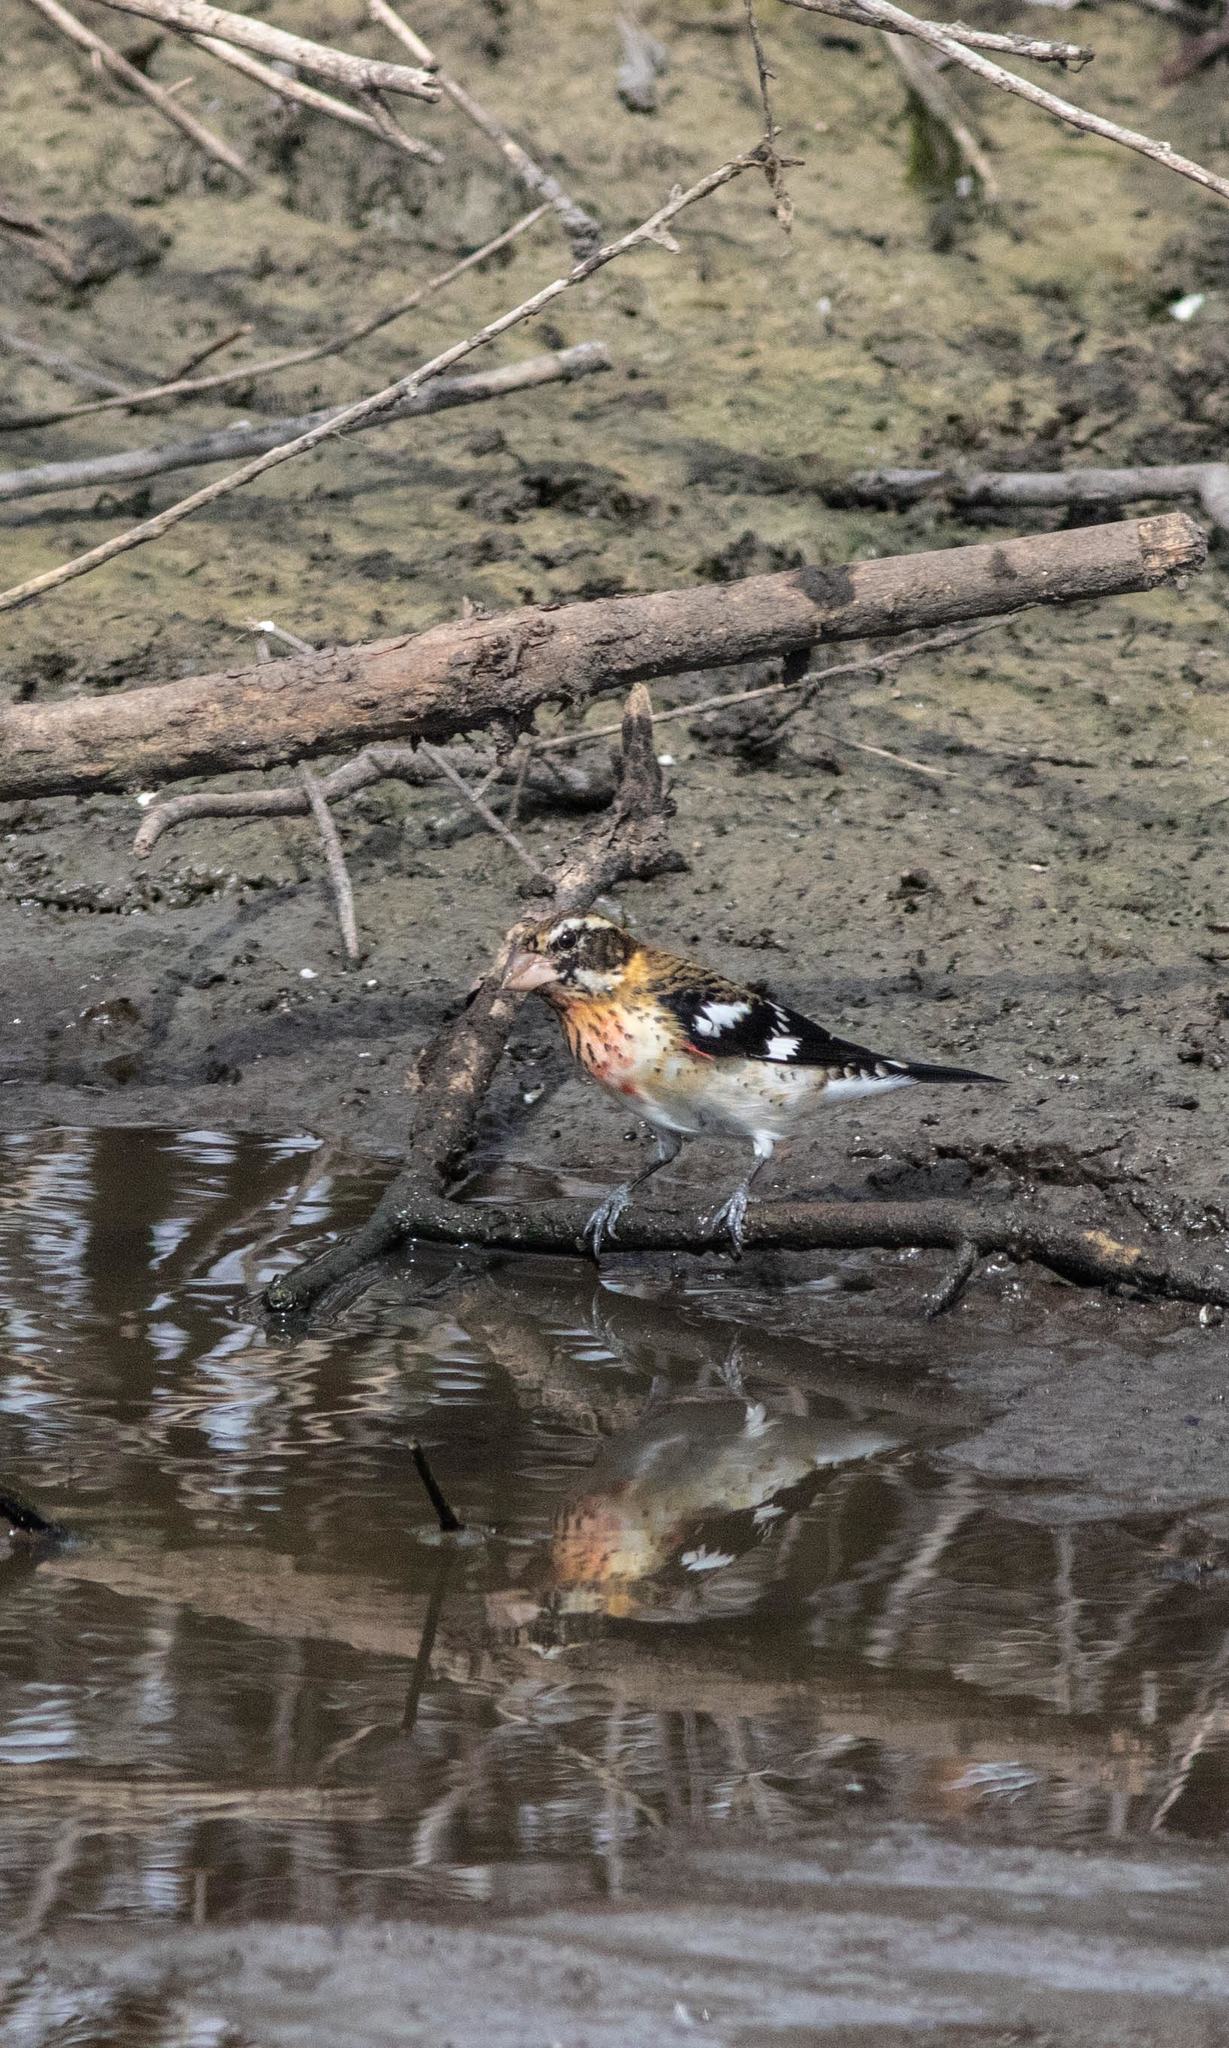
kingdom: Animalia
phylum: Chordata
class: Aves
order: Passeriformes
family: Cardinalidae
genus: Pheucticus
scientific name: Pheucticus ludovicianus
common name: Rose-breasted grosbeak
